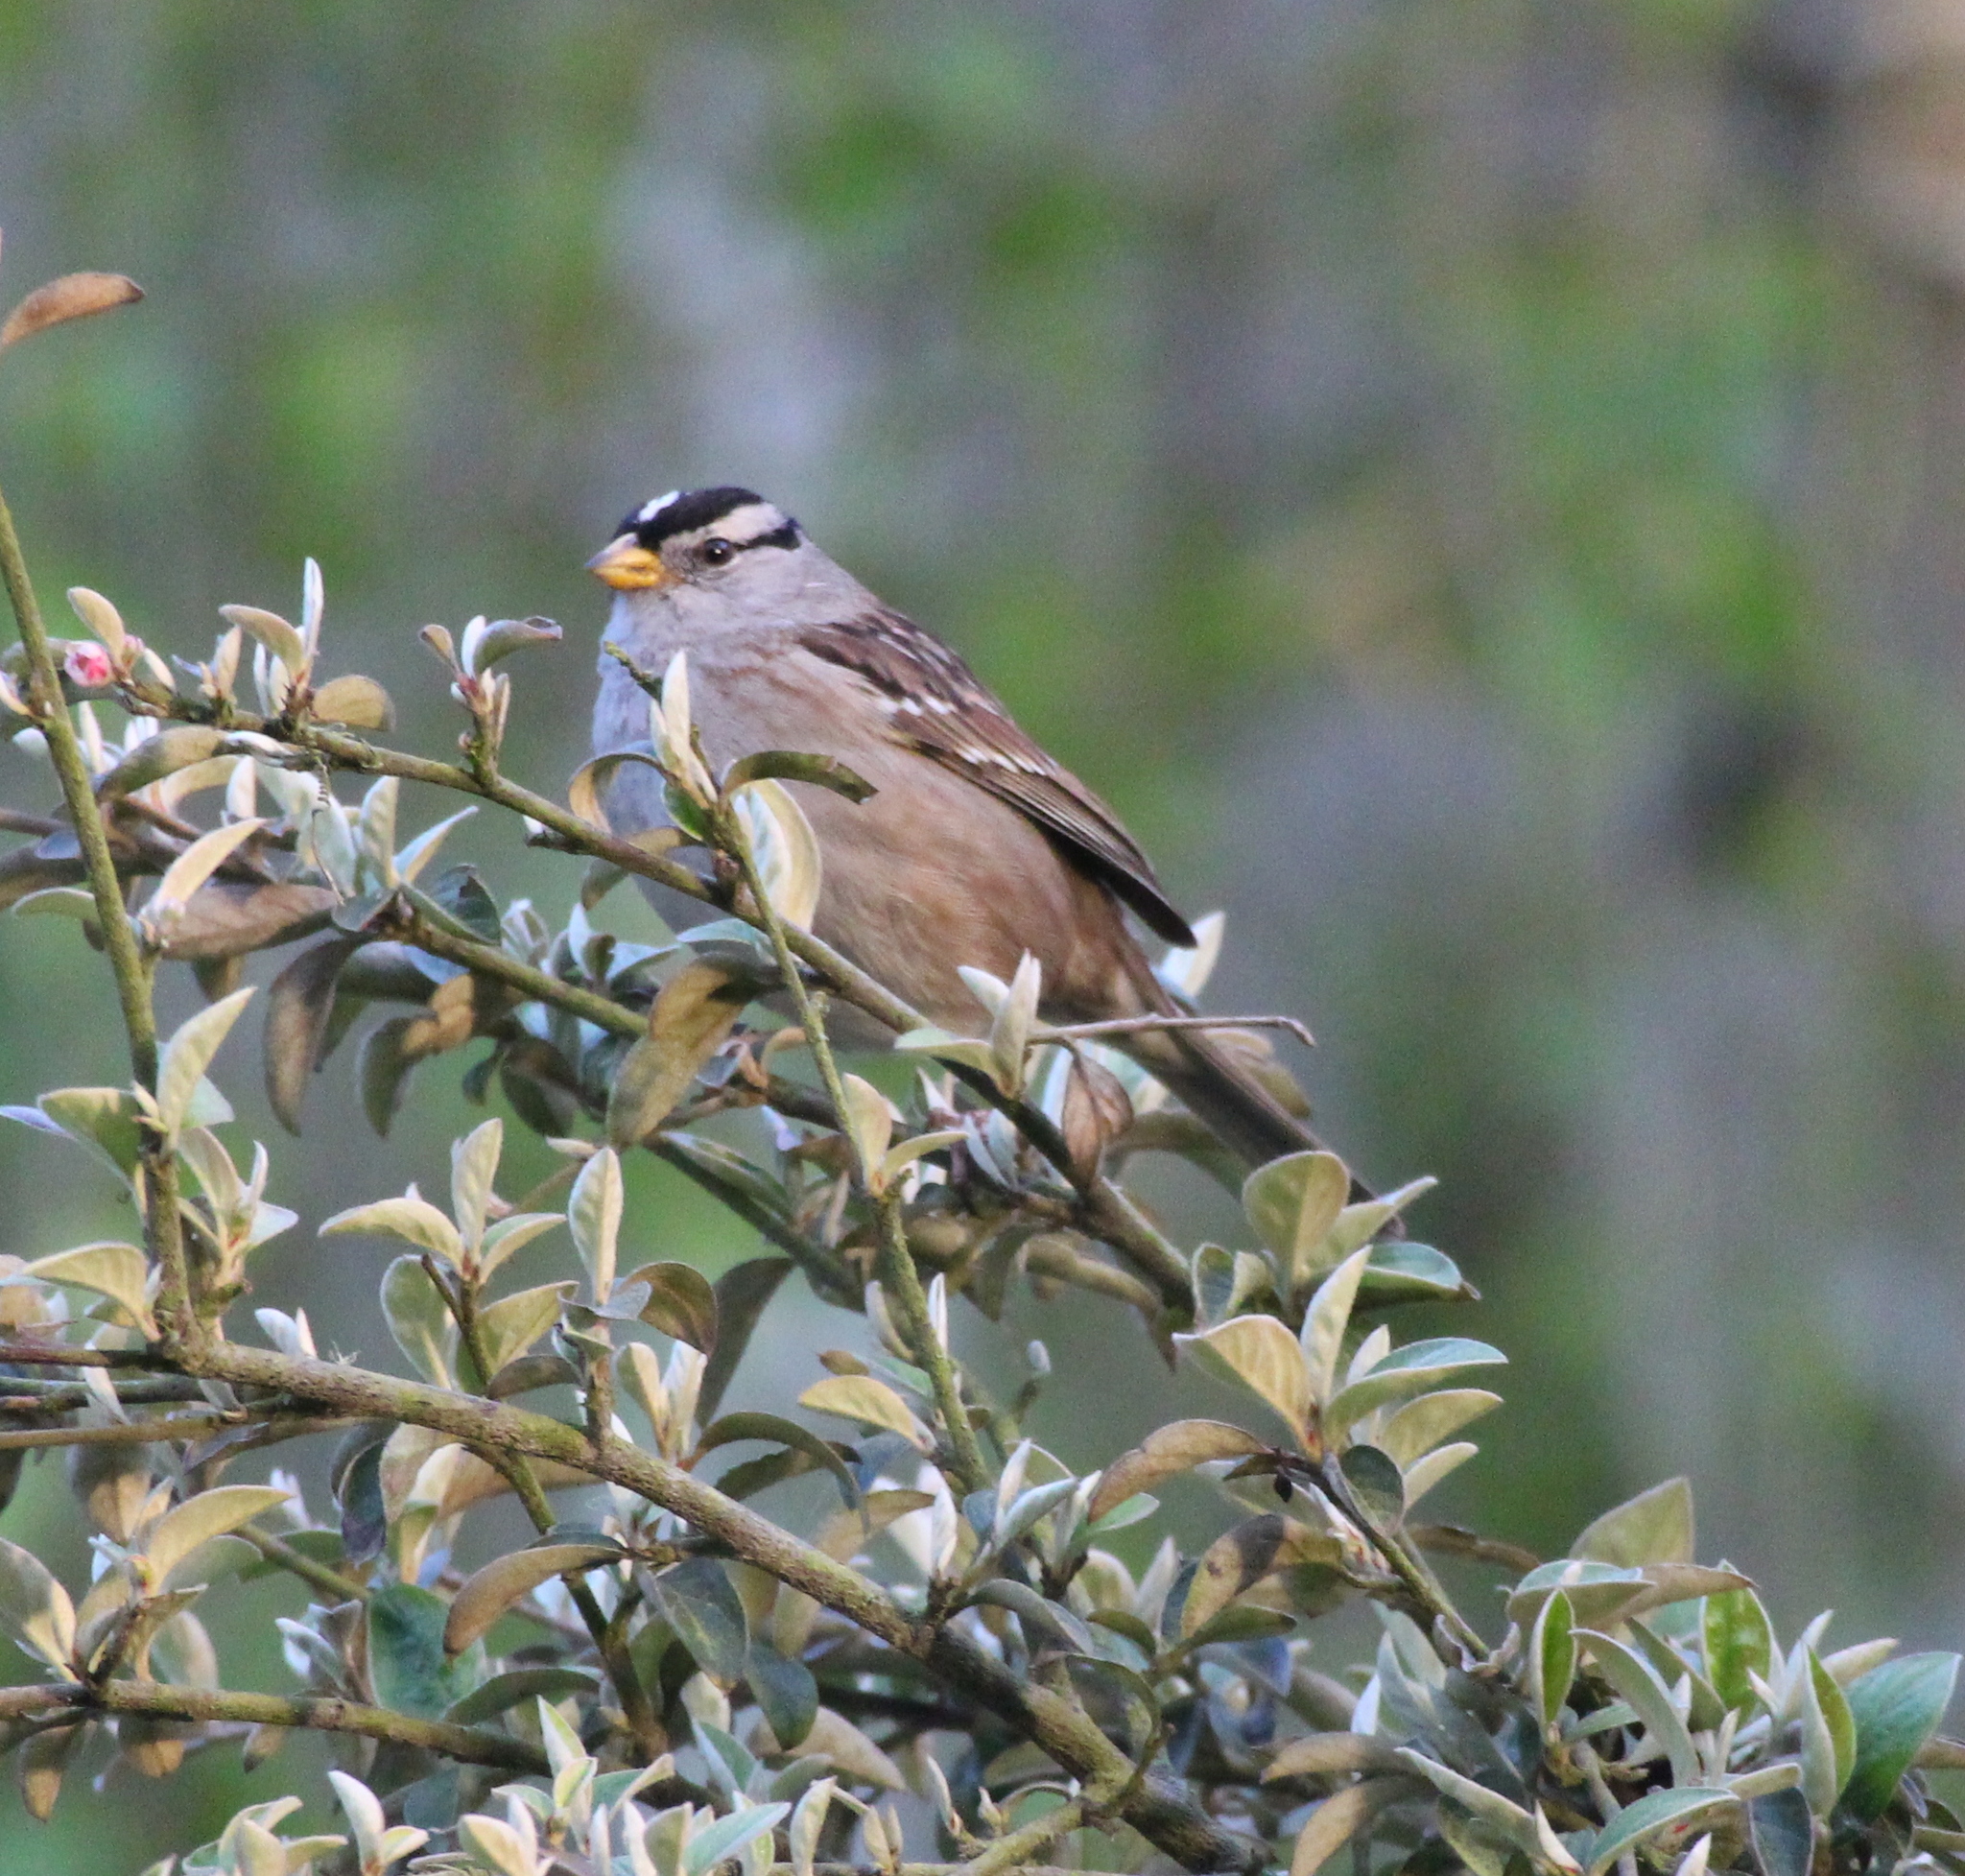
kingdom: Animalia
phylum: Chordata
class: Aves
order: Passeriformes
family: Passerellidae
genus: Zonotrichia
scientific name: Zonotrichia leucophrys
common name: White-crowned sparrow
